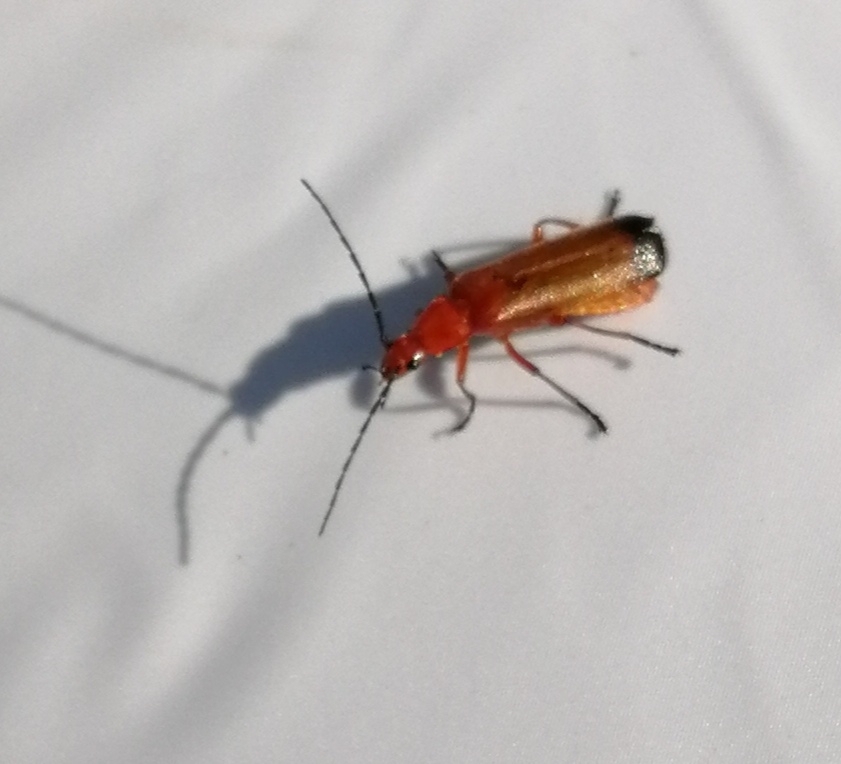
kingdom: Animalia
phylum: Arthropoda
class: Insecta
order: Coleoptera
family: Cantharidae
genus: Rhagonycha
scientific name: Rhagonycha fulva
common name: Common red soldier beetle
